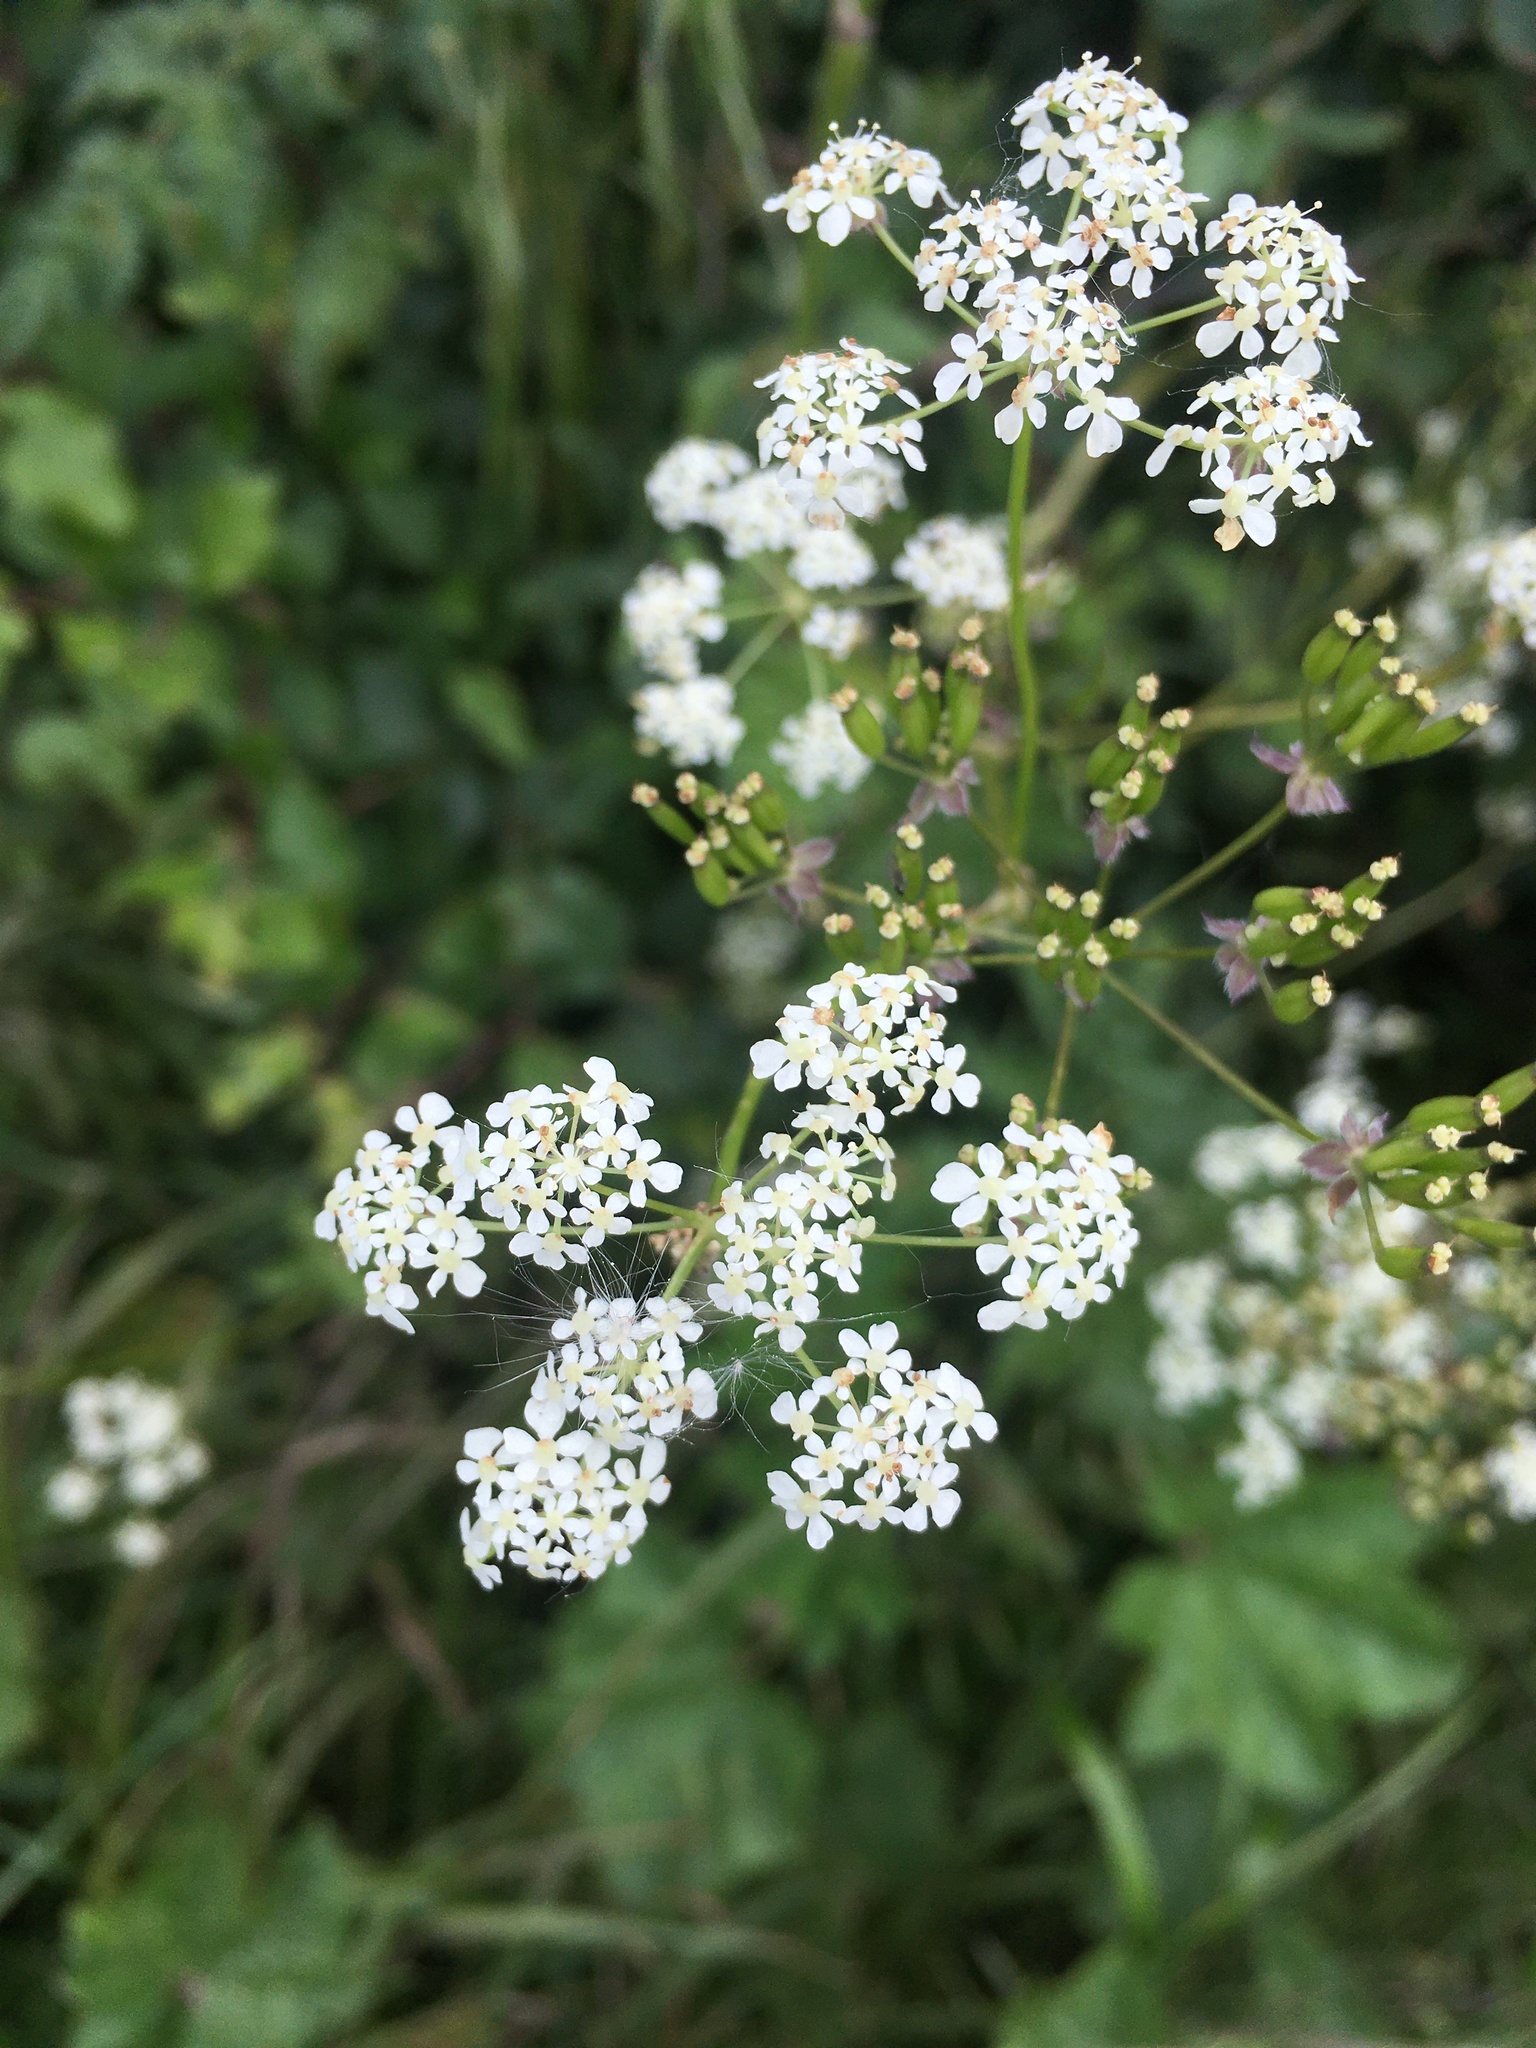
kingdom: Plantae
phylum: Tracheophyta
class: Magnoliopsida
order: Apiales
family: Apiaceae
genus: Anthriscus
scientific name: Anthriscus sylvestris
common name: Cow parsley
